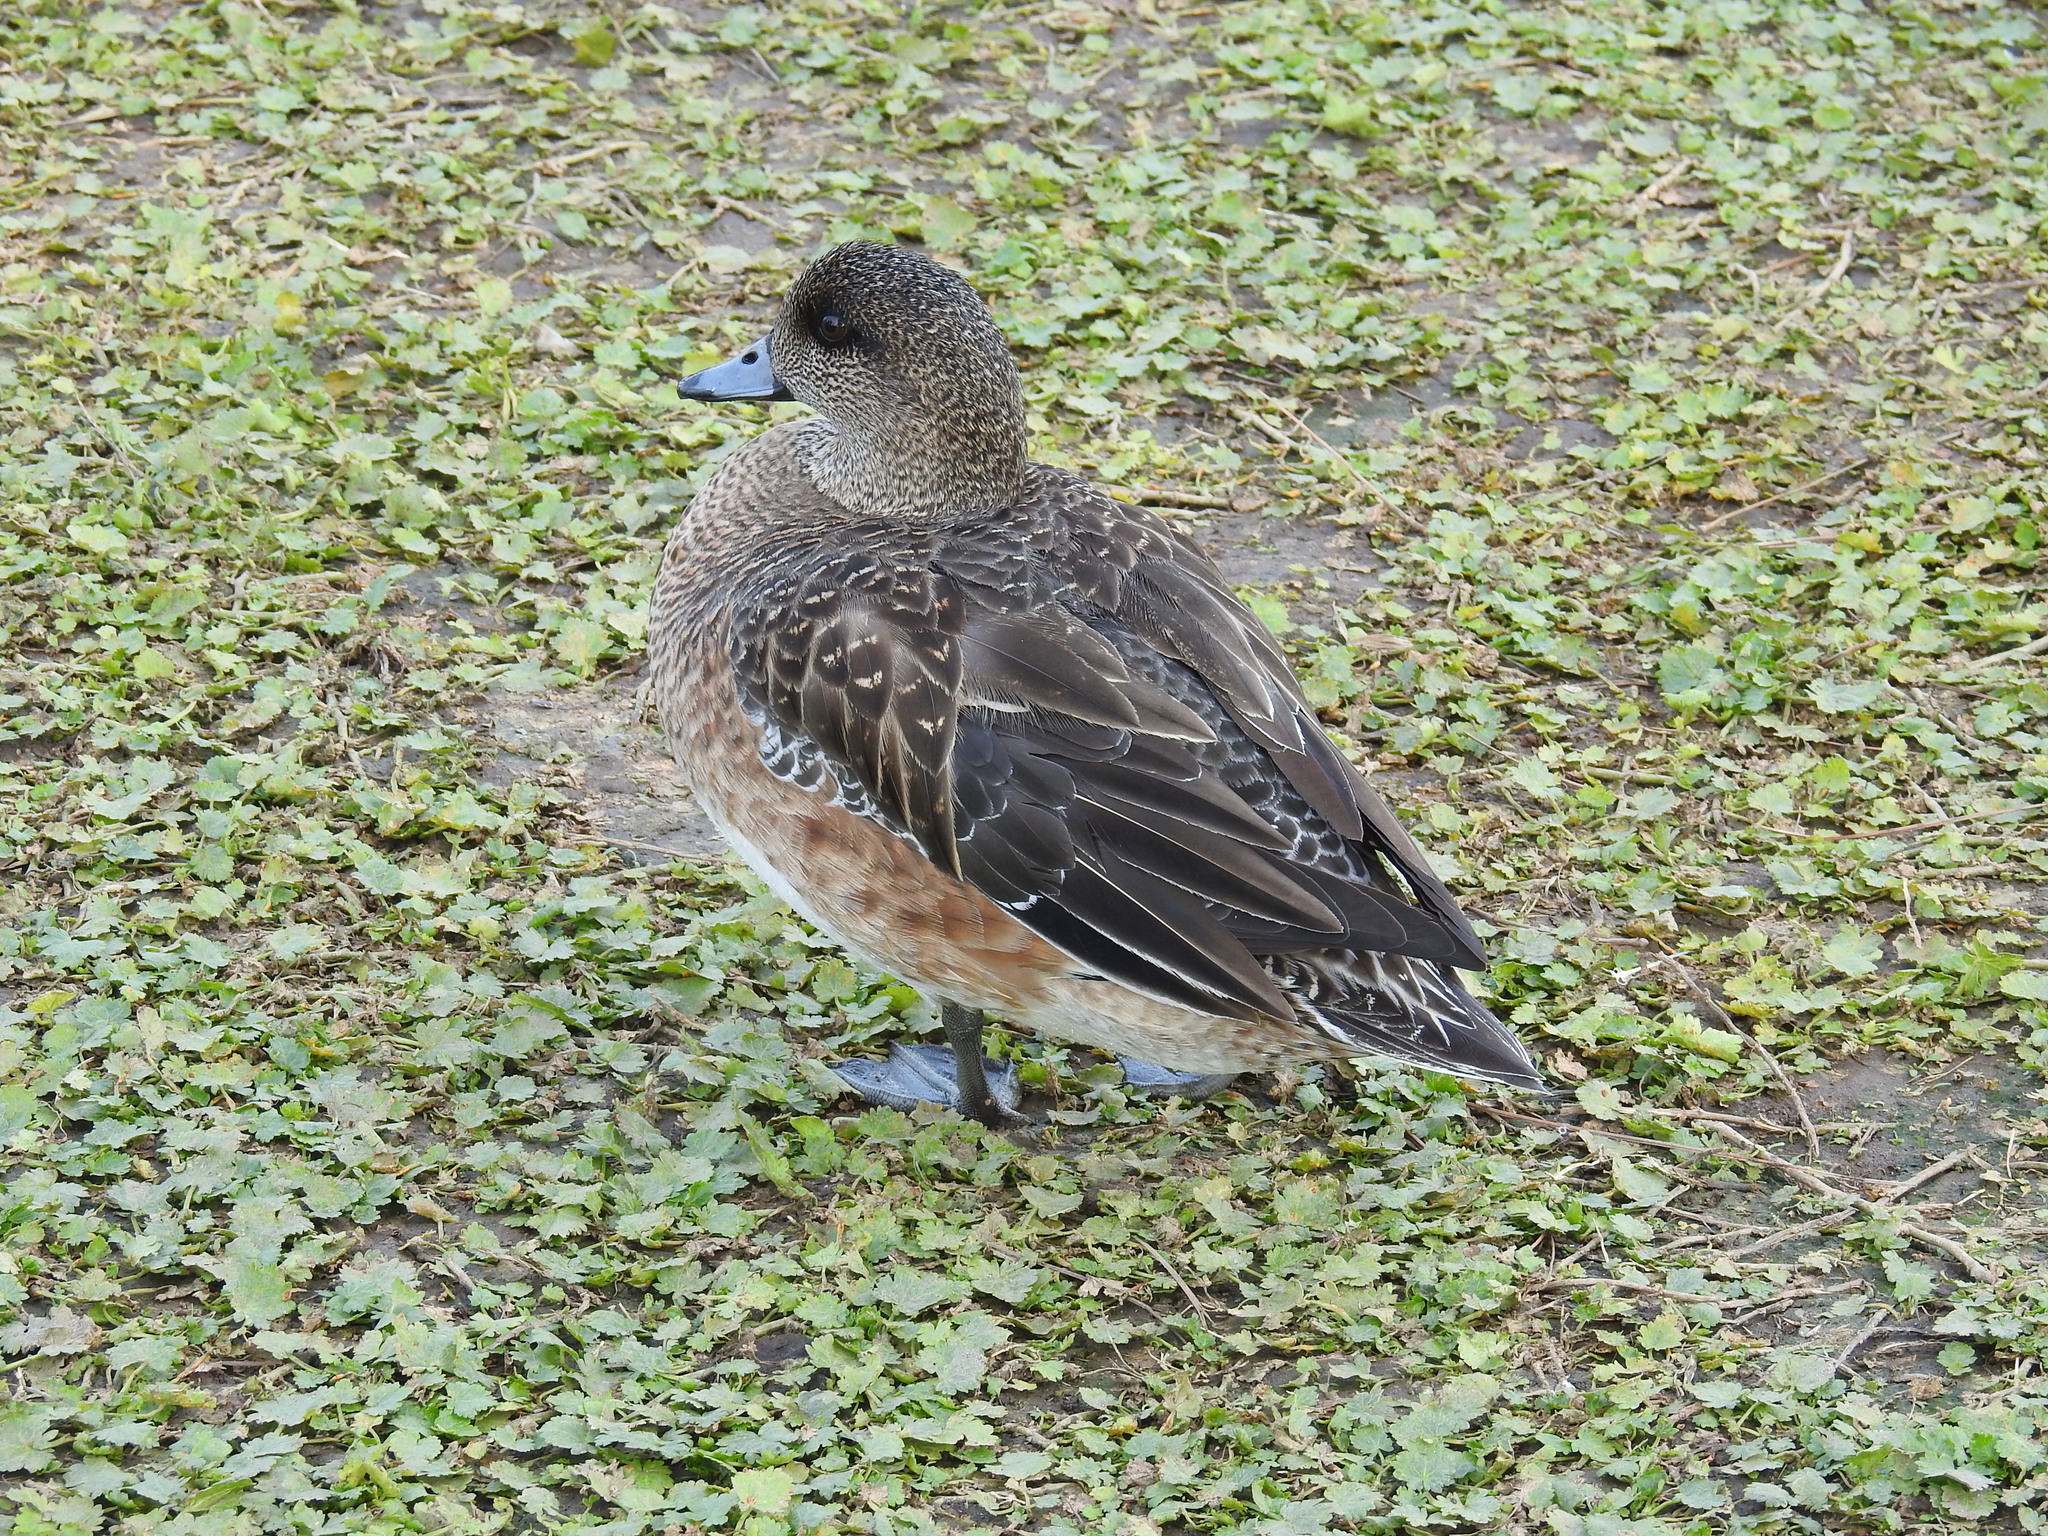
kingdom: Animalia
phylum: Chordata
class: Aves
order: Anseriformes
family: Anatidae
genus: Mareca
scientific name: Mareca americana
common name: American wigeon
